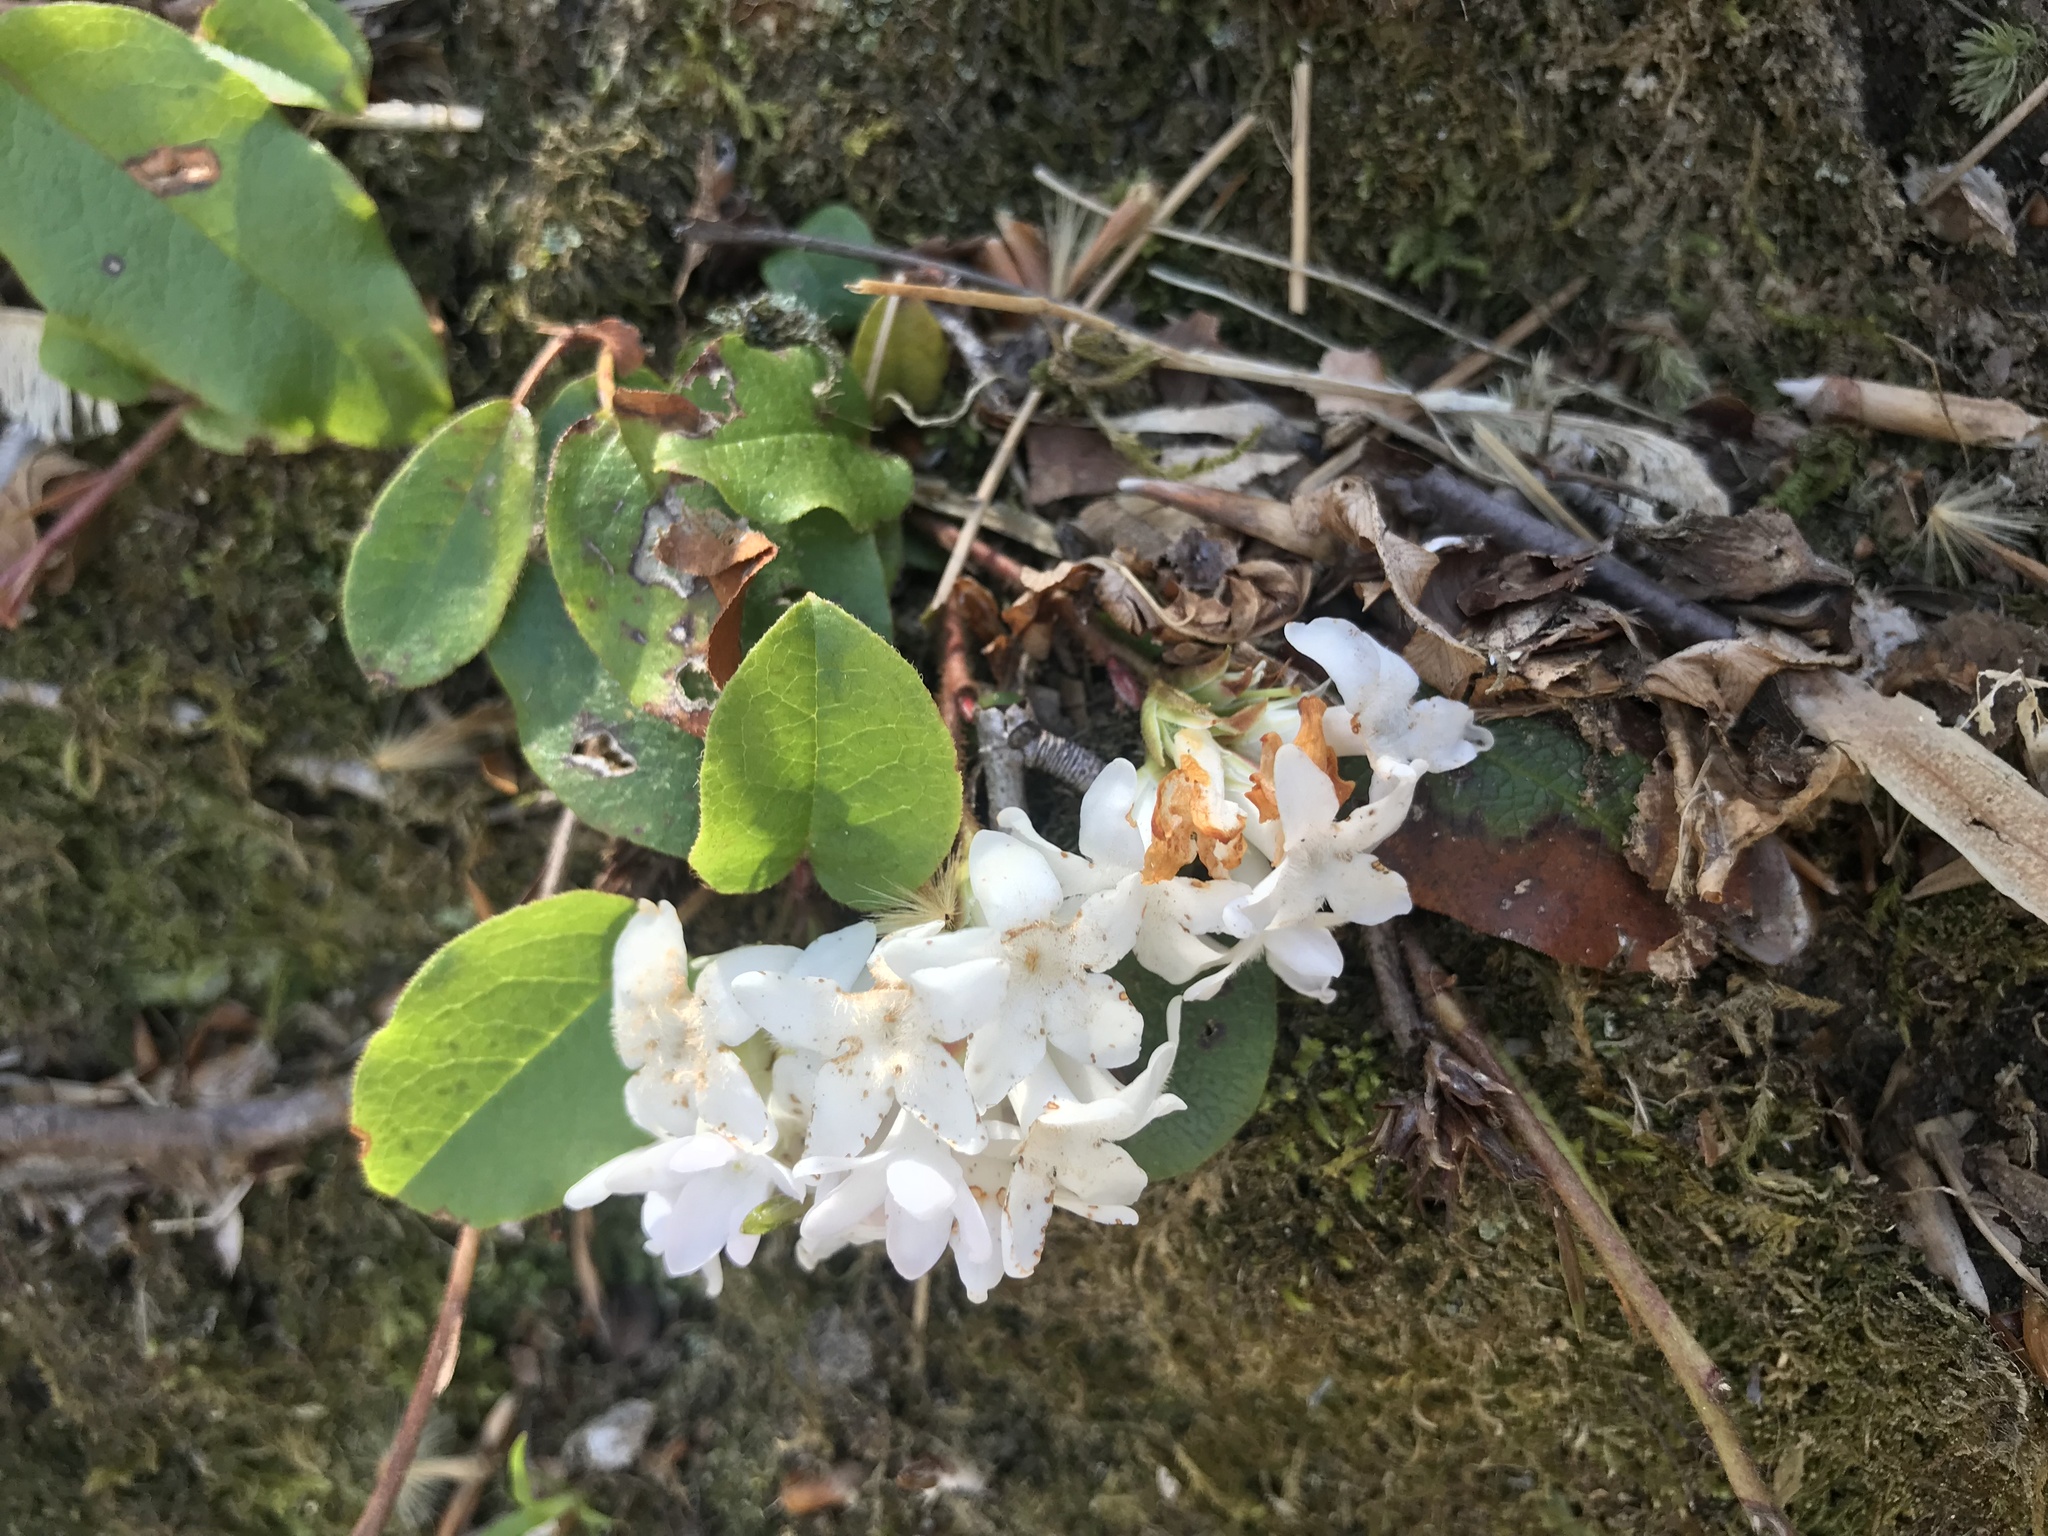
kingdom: Plantae
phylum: Tracheophyta
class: Magnoliopsida
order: Ericales
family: Ericaceae
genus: Epigaea
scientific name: Epigaea repens
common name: Gravelroot
